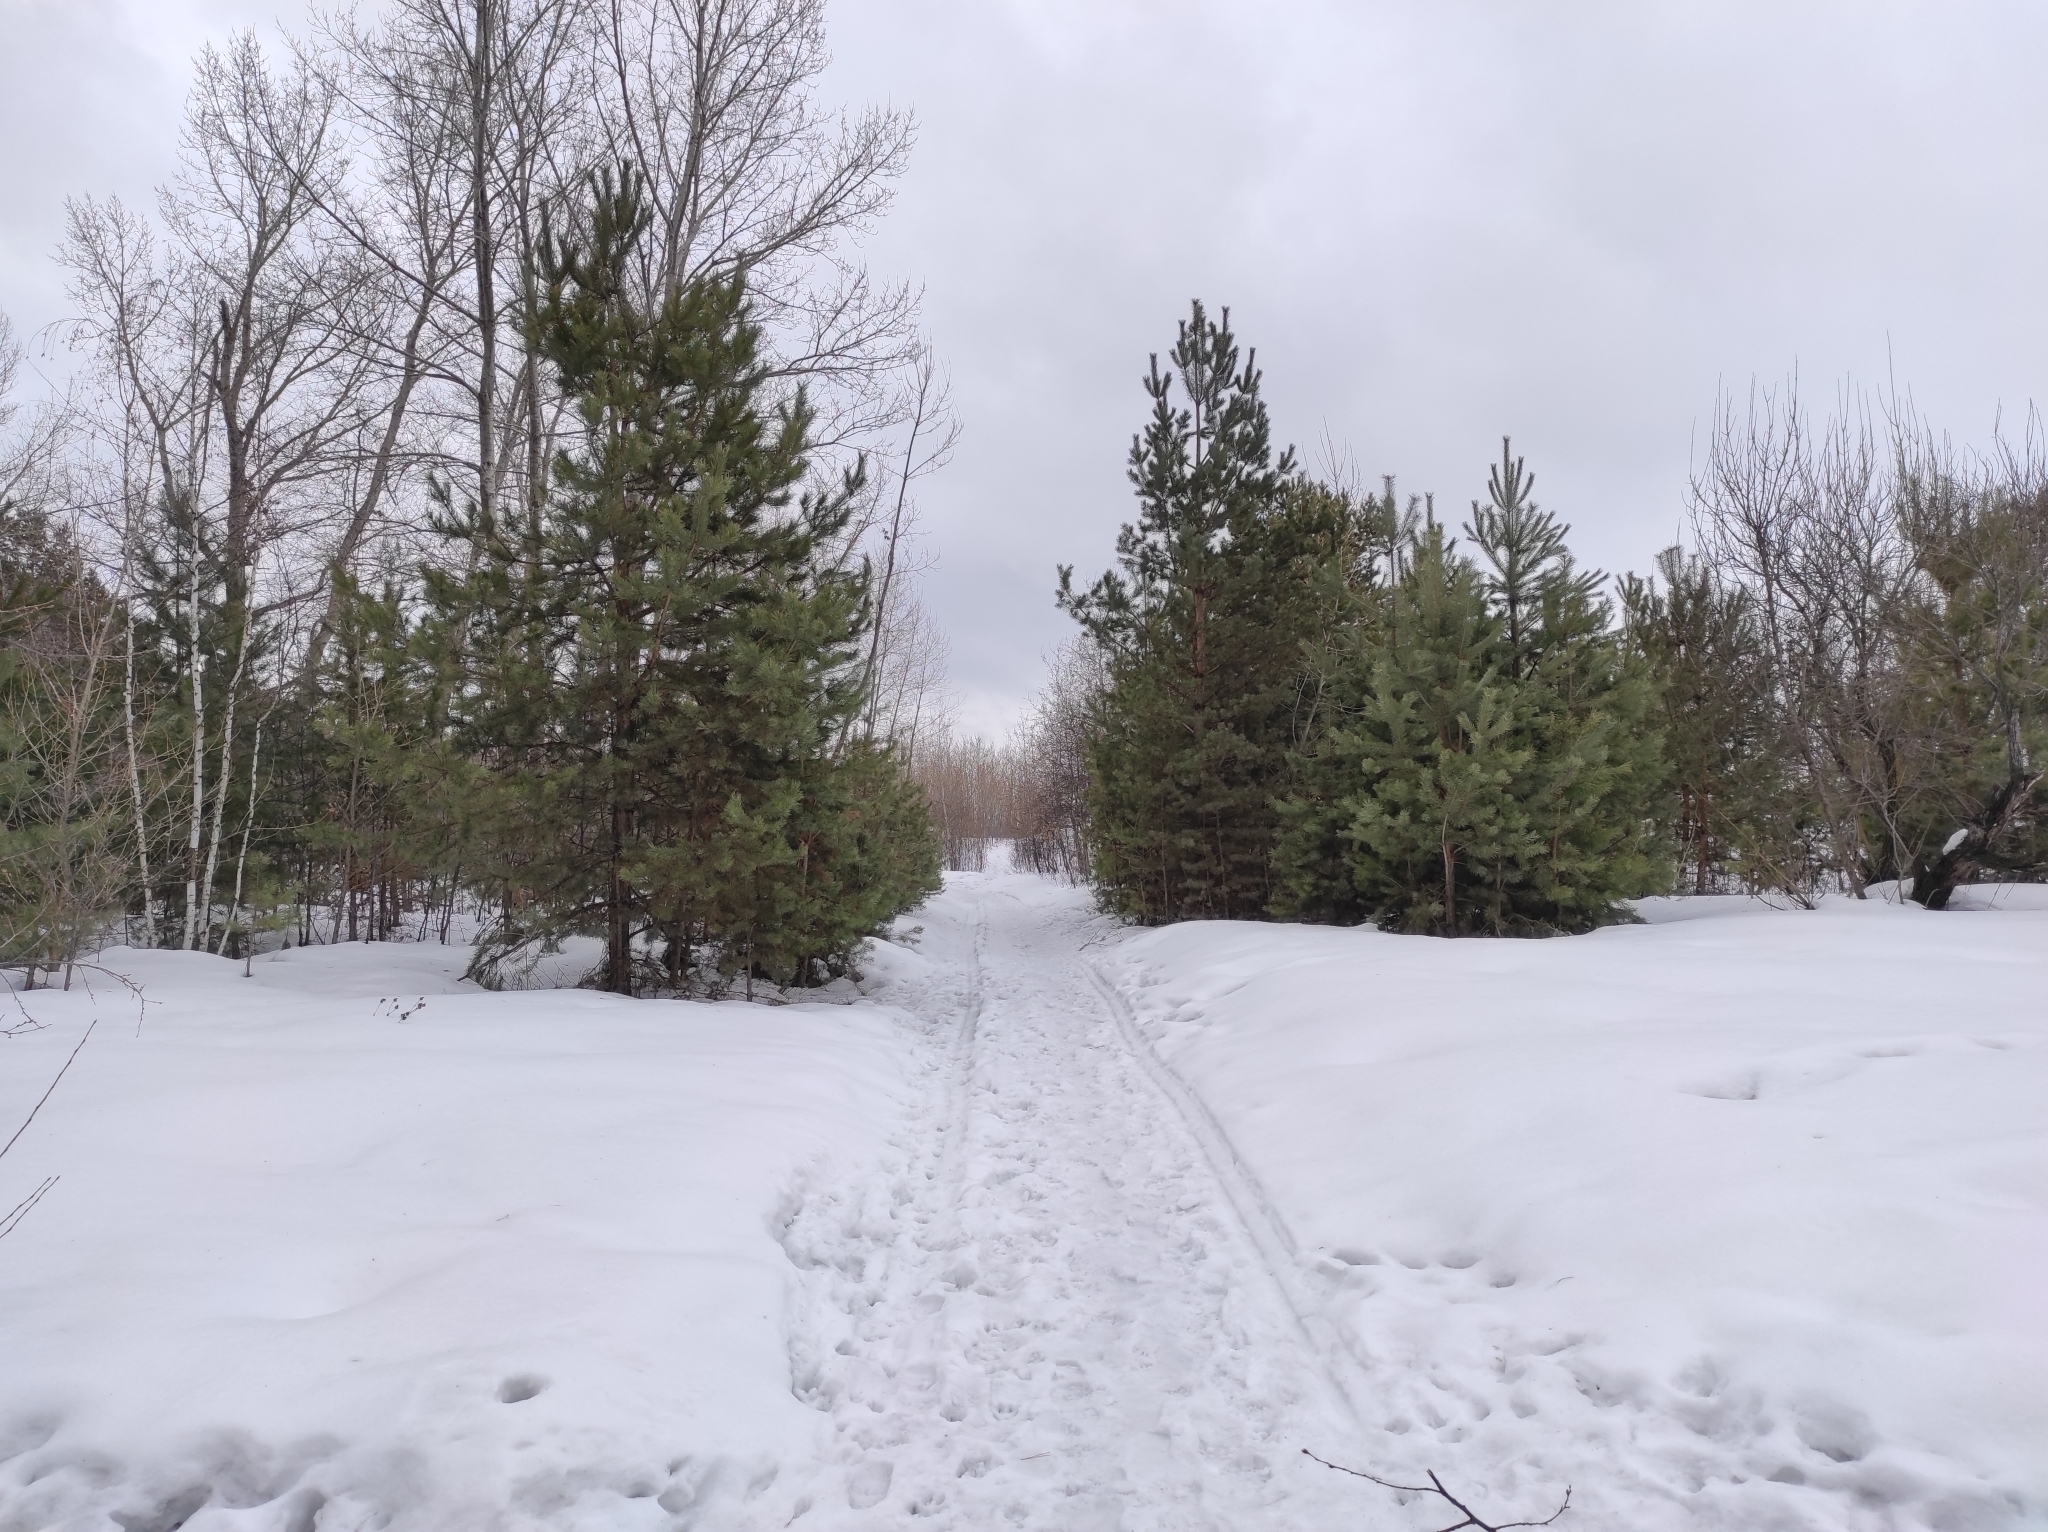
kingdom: Plantae
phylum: Tracheophyta
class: Pinopsida
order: Pinales
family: Pinaceae
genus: Pinus
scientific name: Pinus sylvestris
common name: Scots pine
